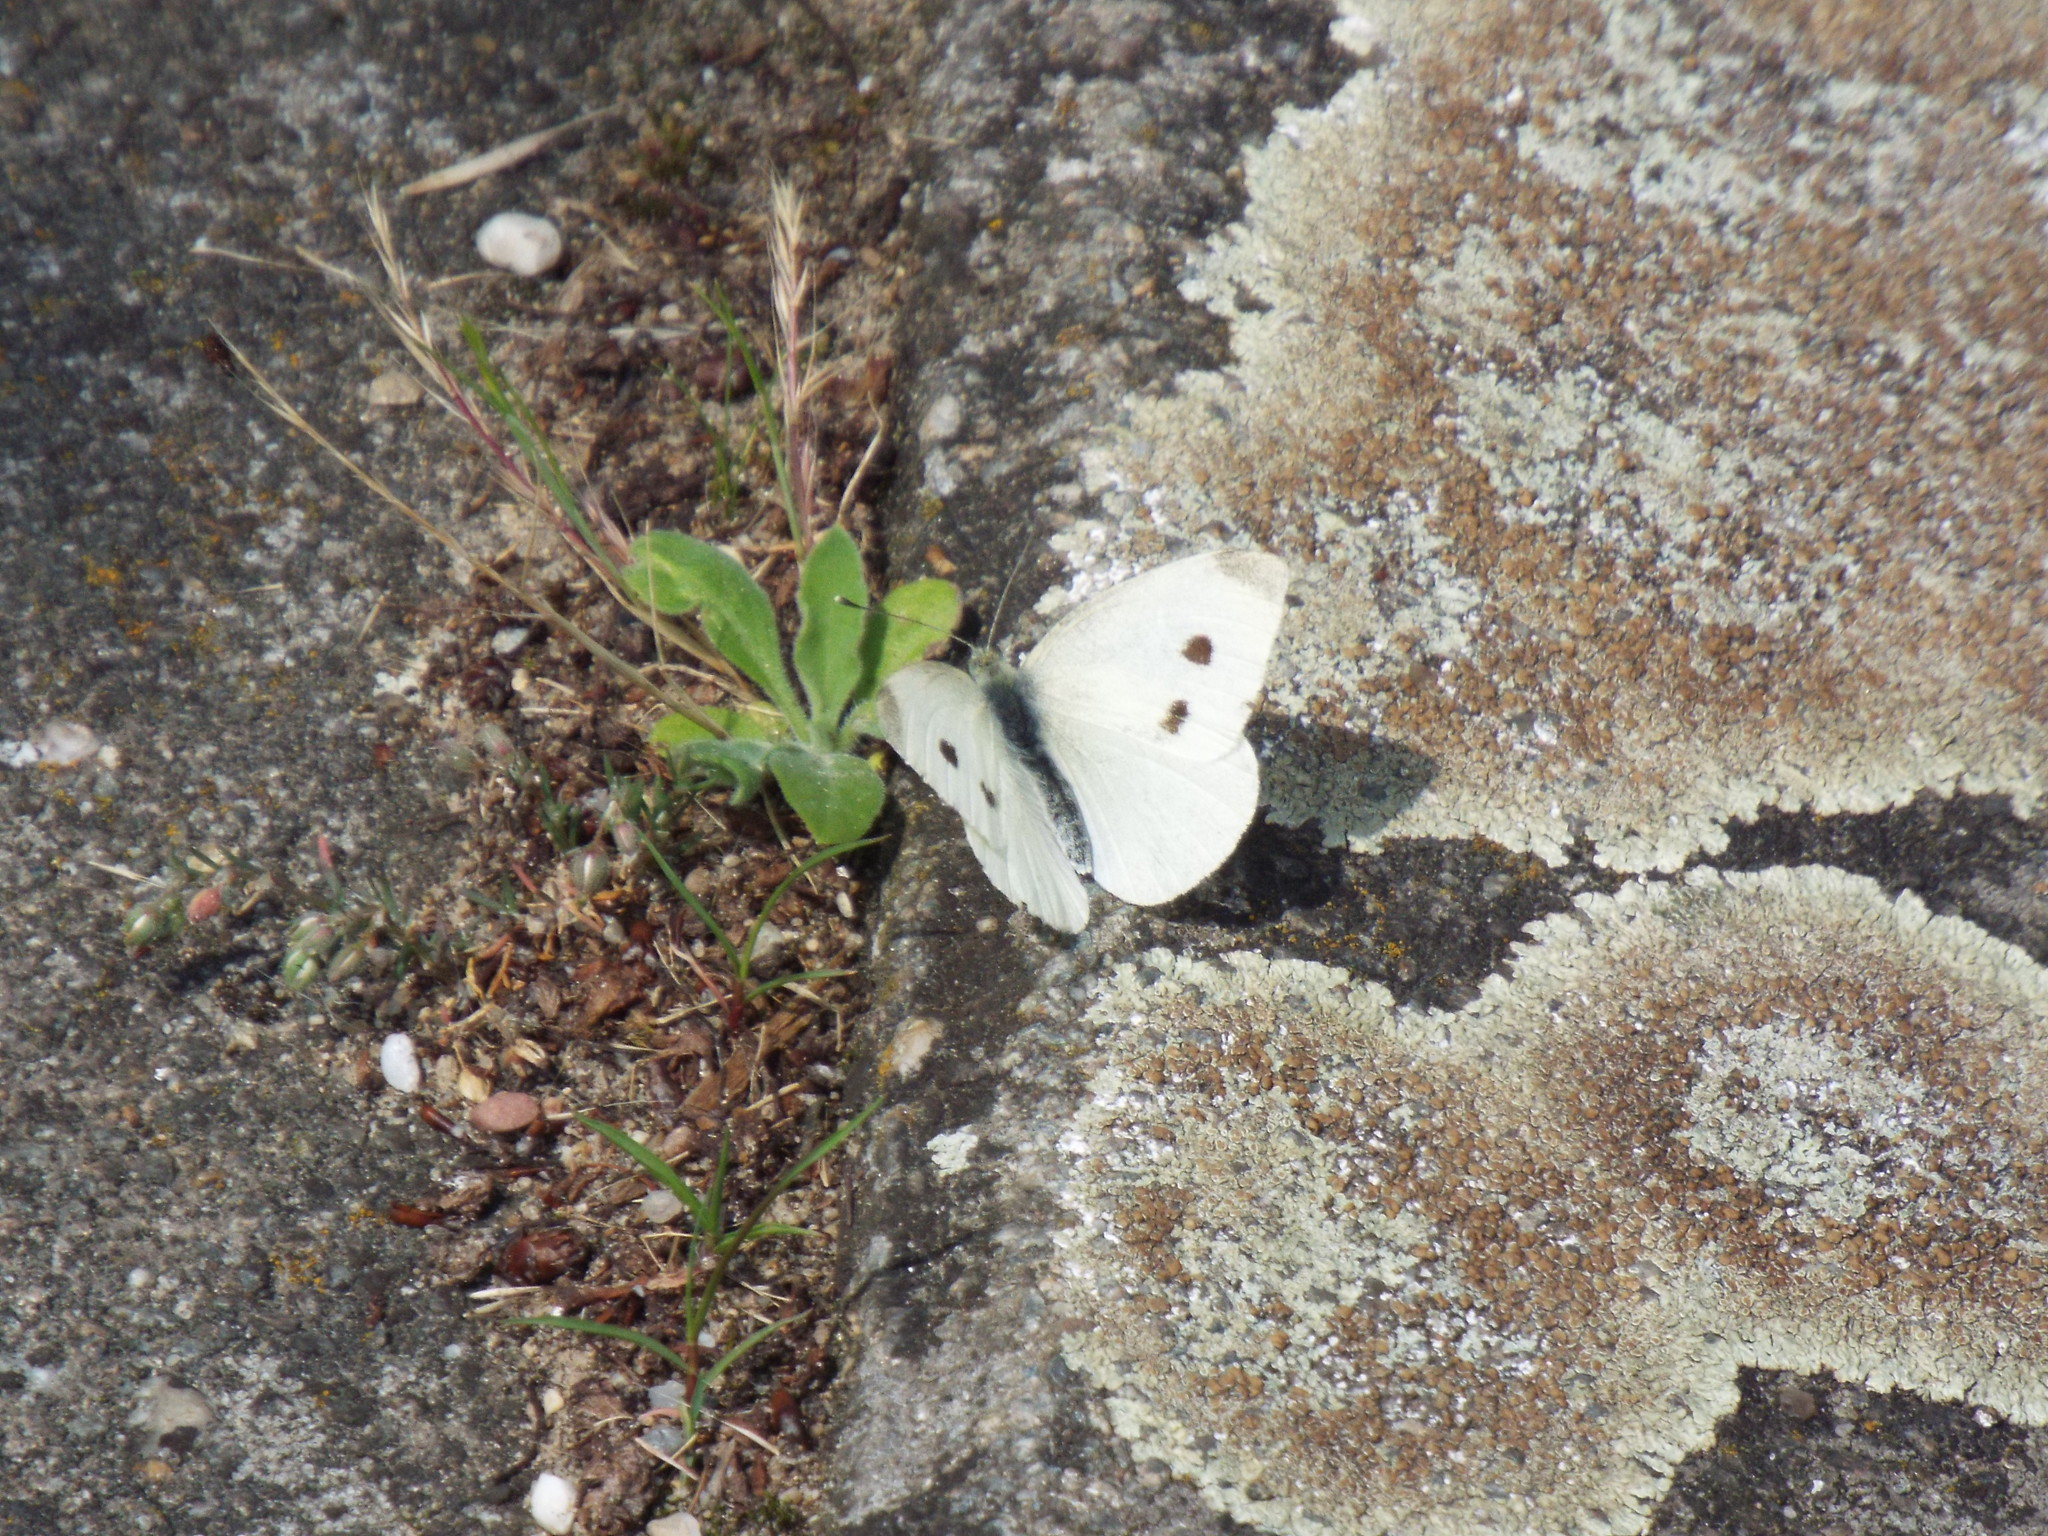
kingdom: Animalia
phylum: Arthropoda
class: Insecta
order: Lepidoptera
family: Pieridae
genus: Pieris
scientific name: Pieris rapae
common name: Small white
